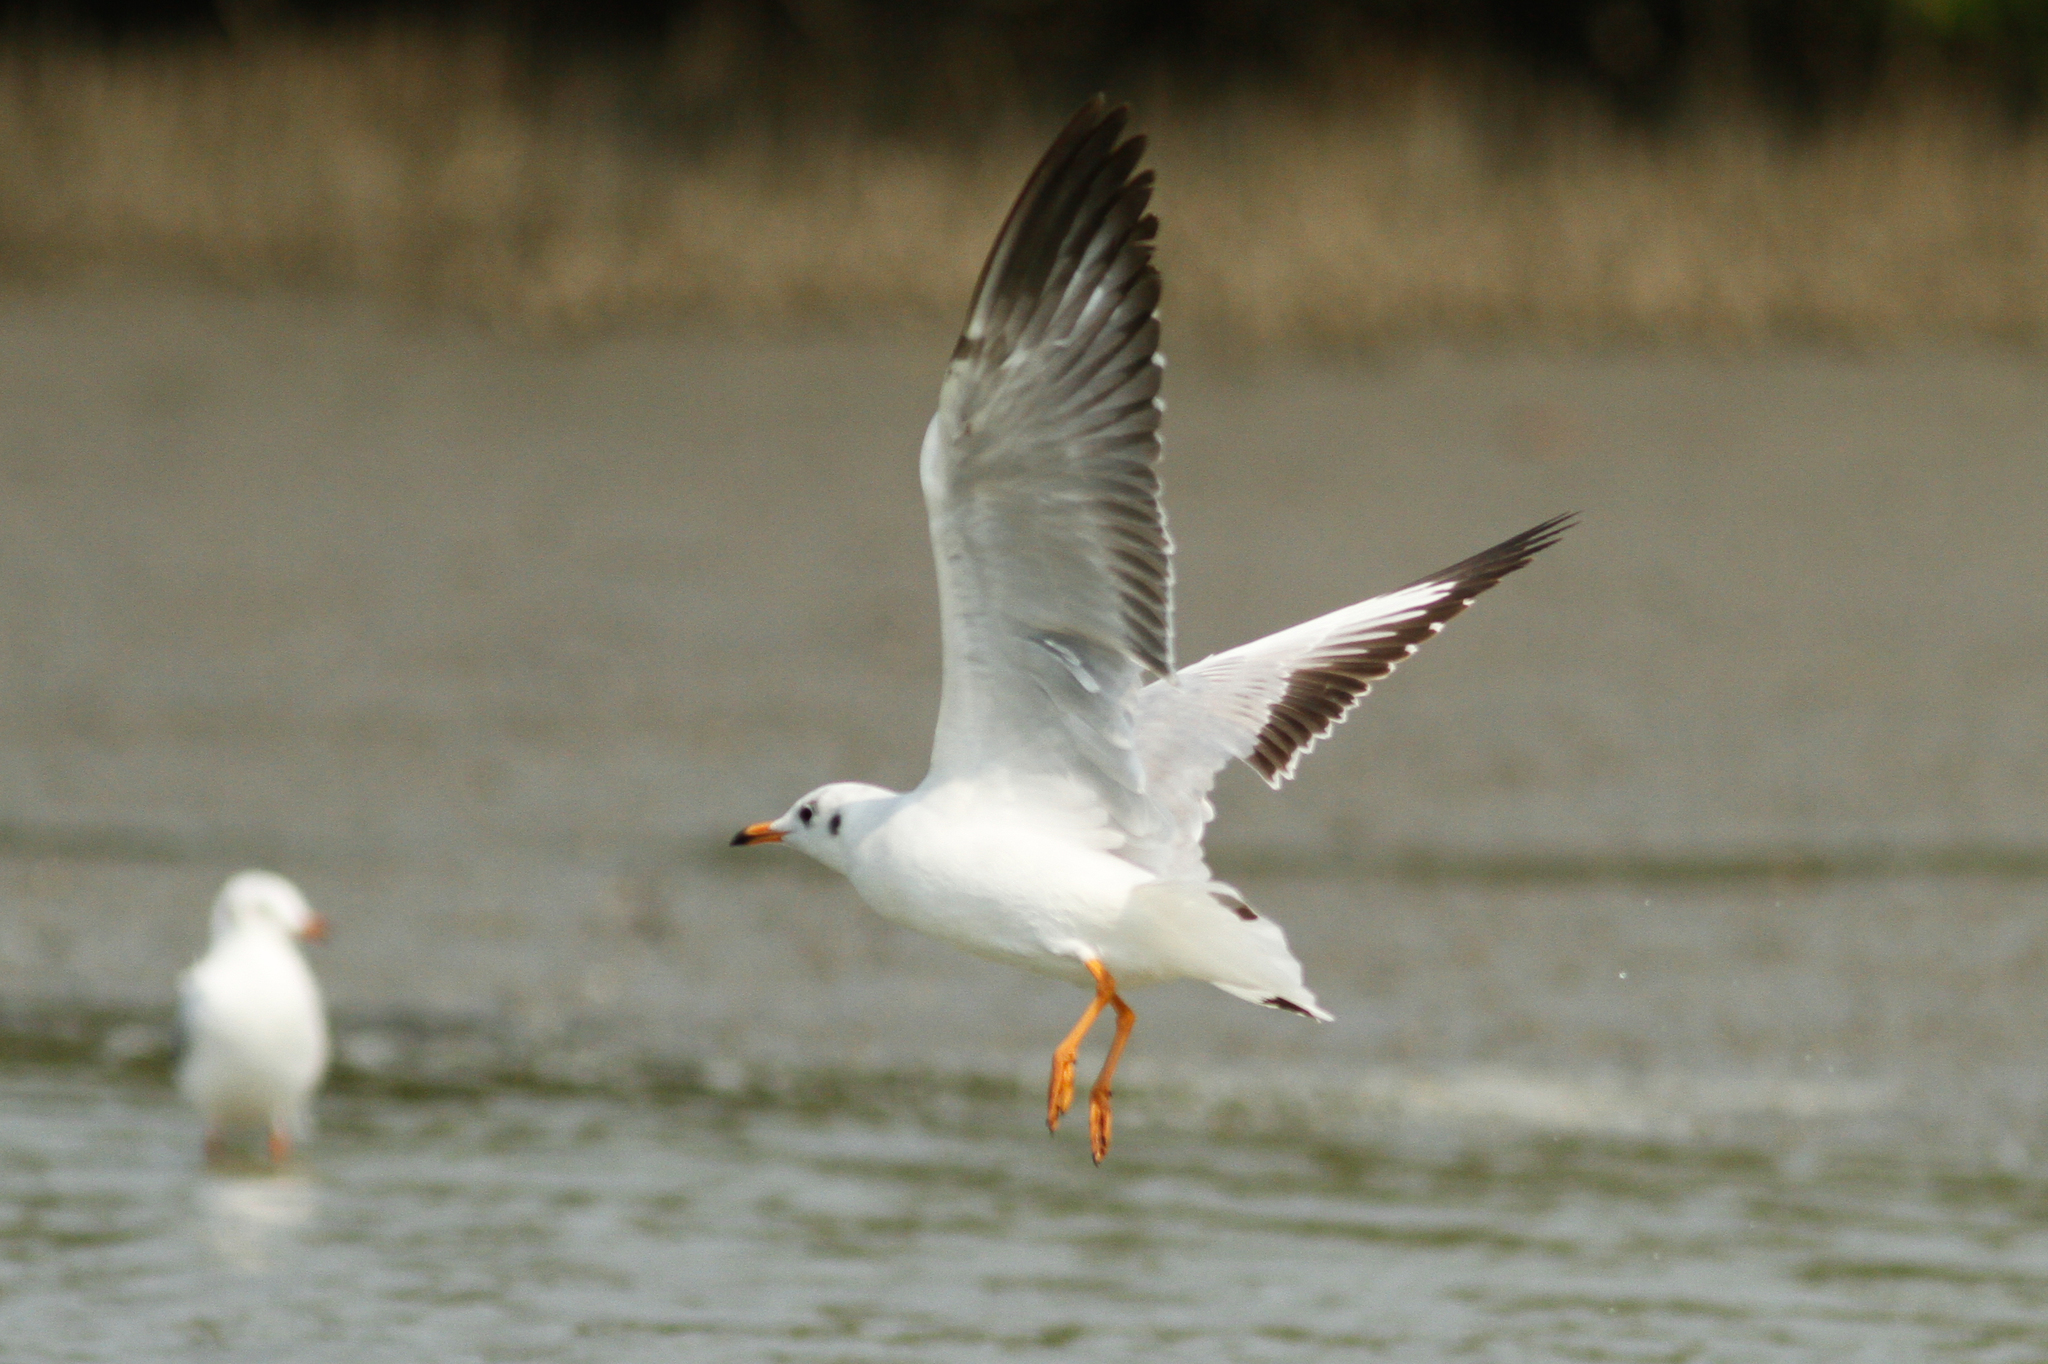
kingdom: Animalia
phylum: Chordata
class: Aves
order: Charadriiformes
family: Laridae
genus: Chroicocephalus
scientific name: Chroicocephalus brunnicephalus
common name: Brown-headed gull
